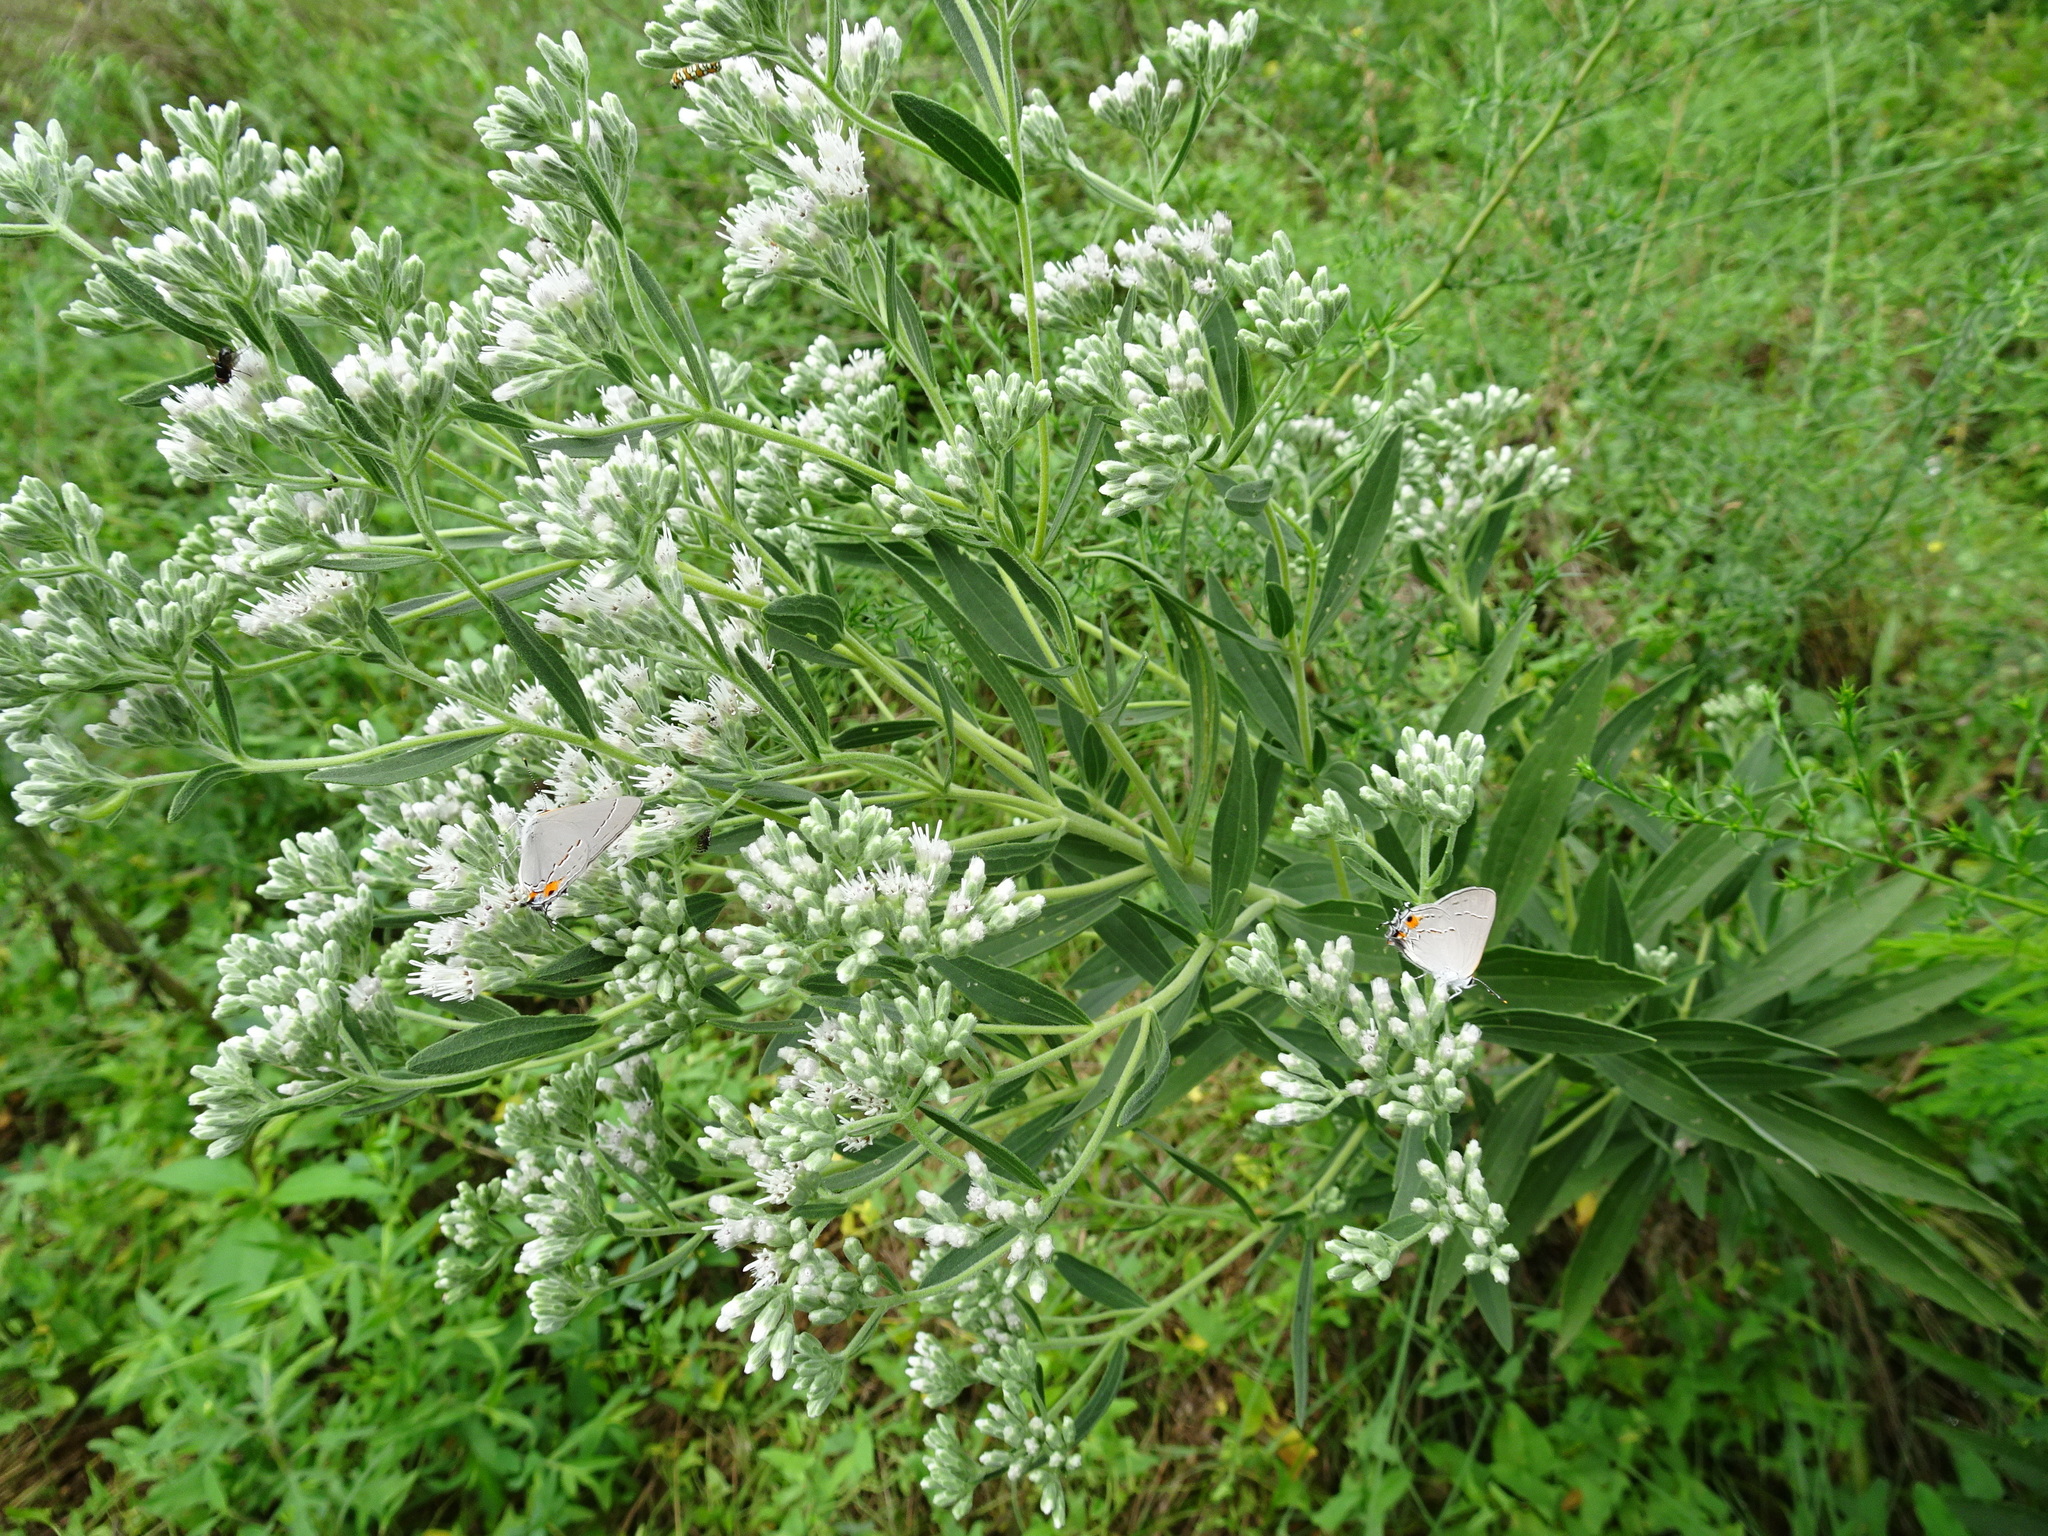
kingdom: Plantae
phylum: Tracheophyta
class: Magnoliopsida
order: Asterales
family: Asteraceae
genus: Eupatorium
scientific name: Eupatorium altissimum
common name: Tall thoroughwort
